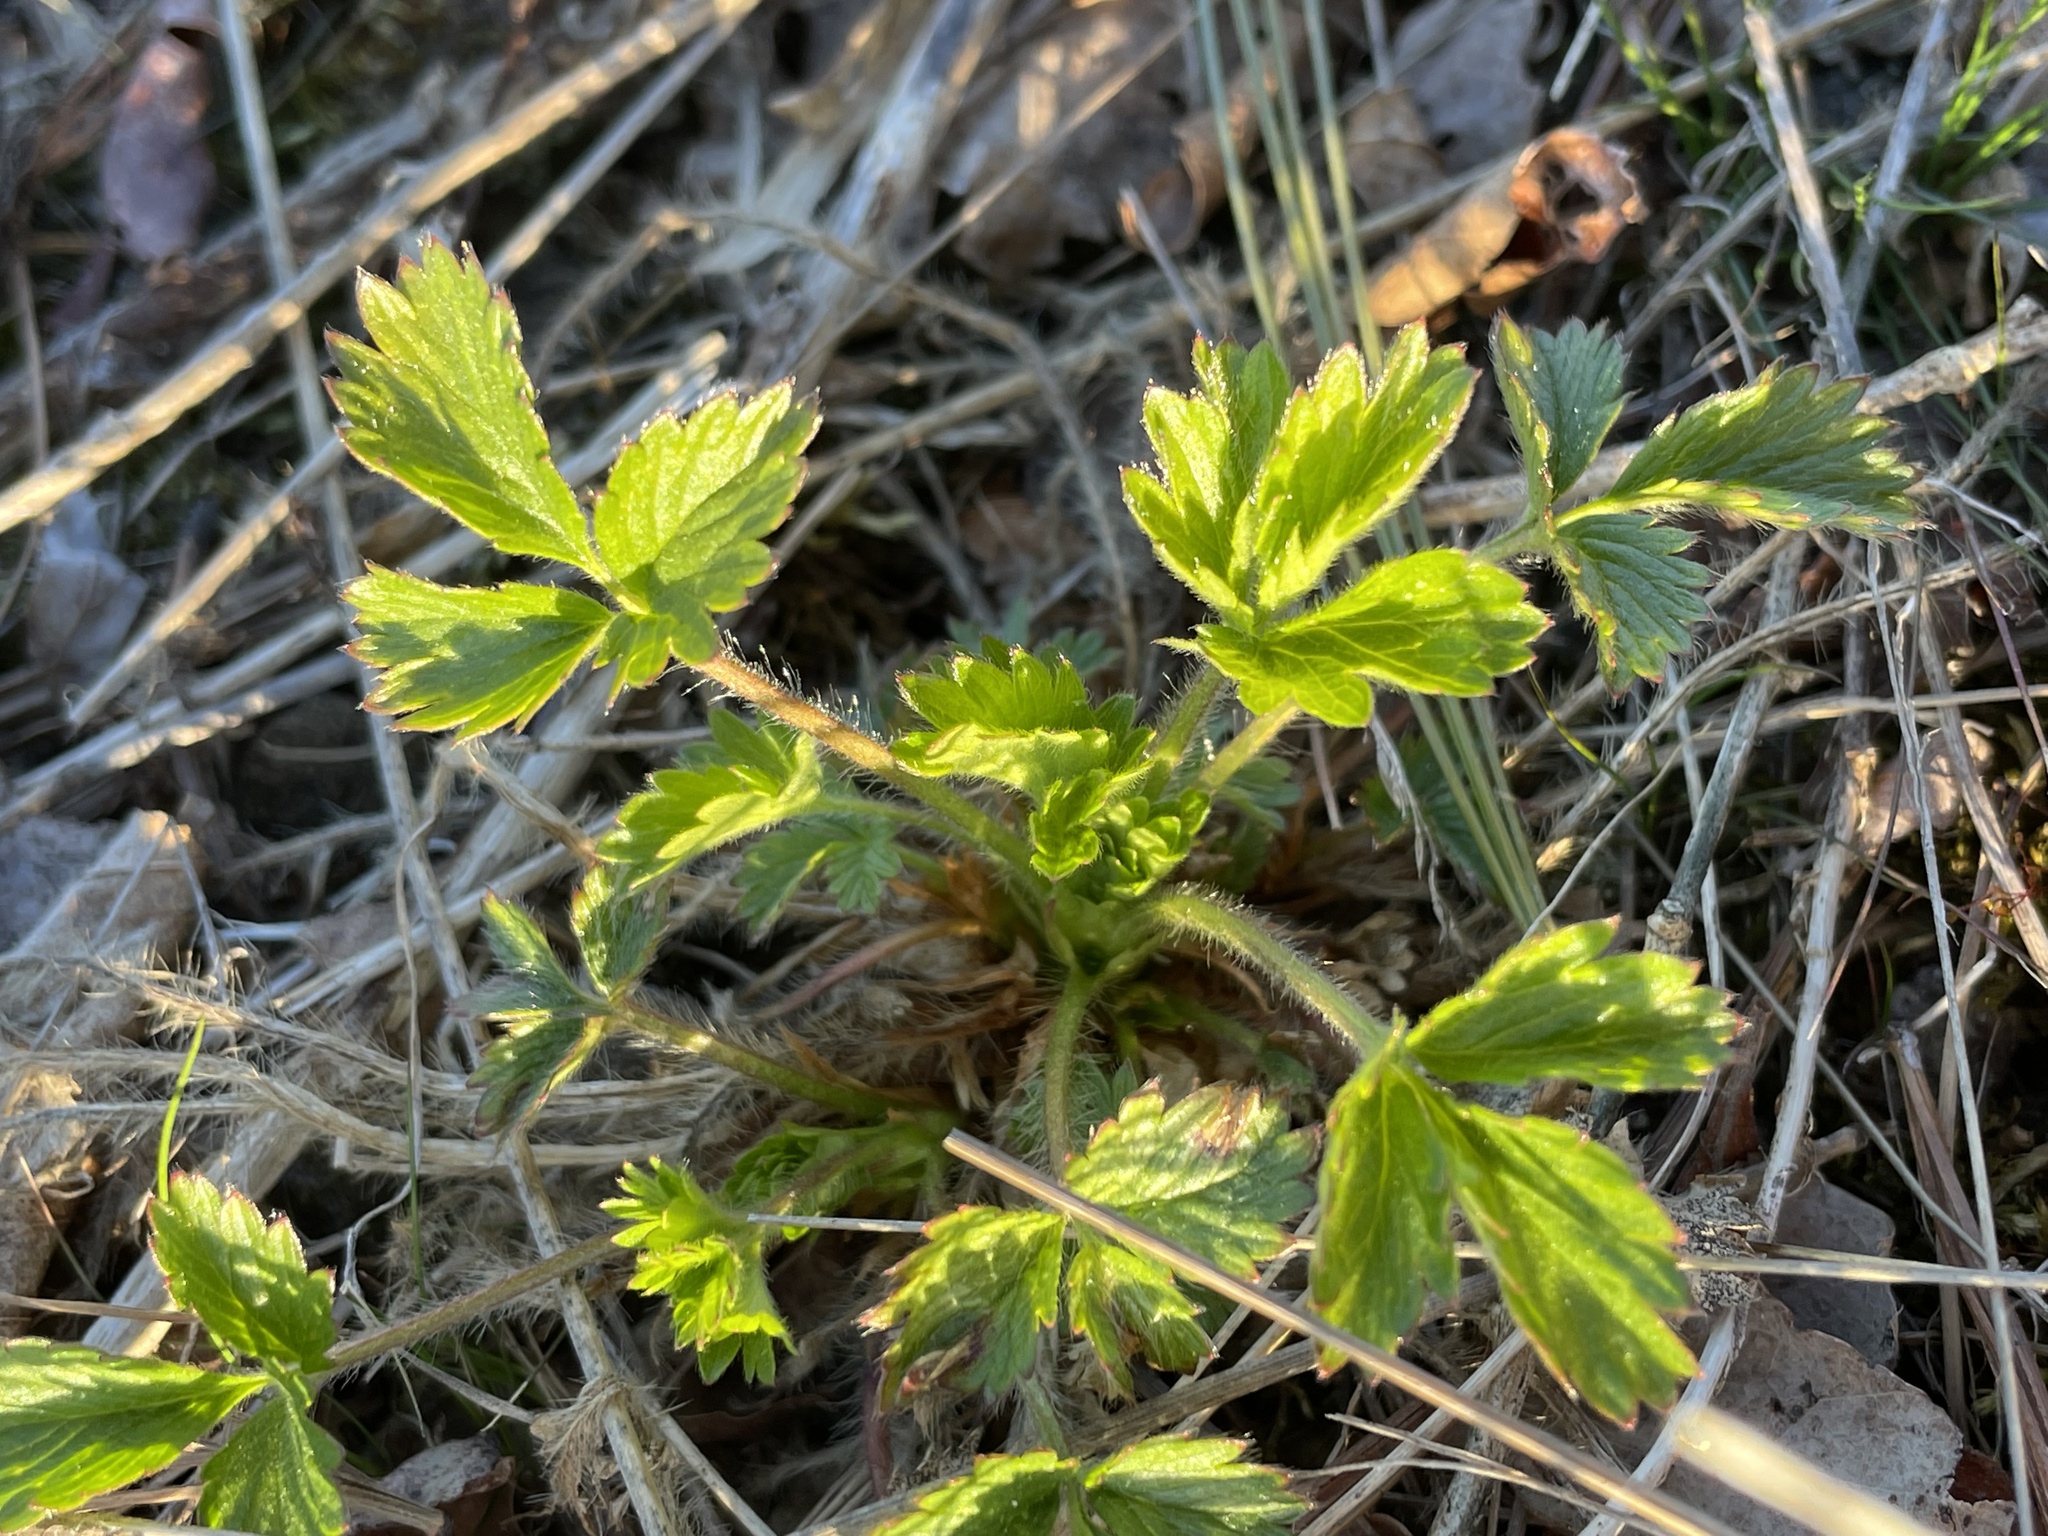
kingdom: Plantae
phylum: Tracheophyta
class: Magnoliopsida
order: Rosales
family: Rosaceae
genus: Potentilla
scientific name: Potentilla norvegica
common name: Ternate-leaved cinquefoil
